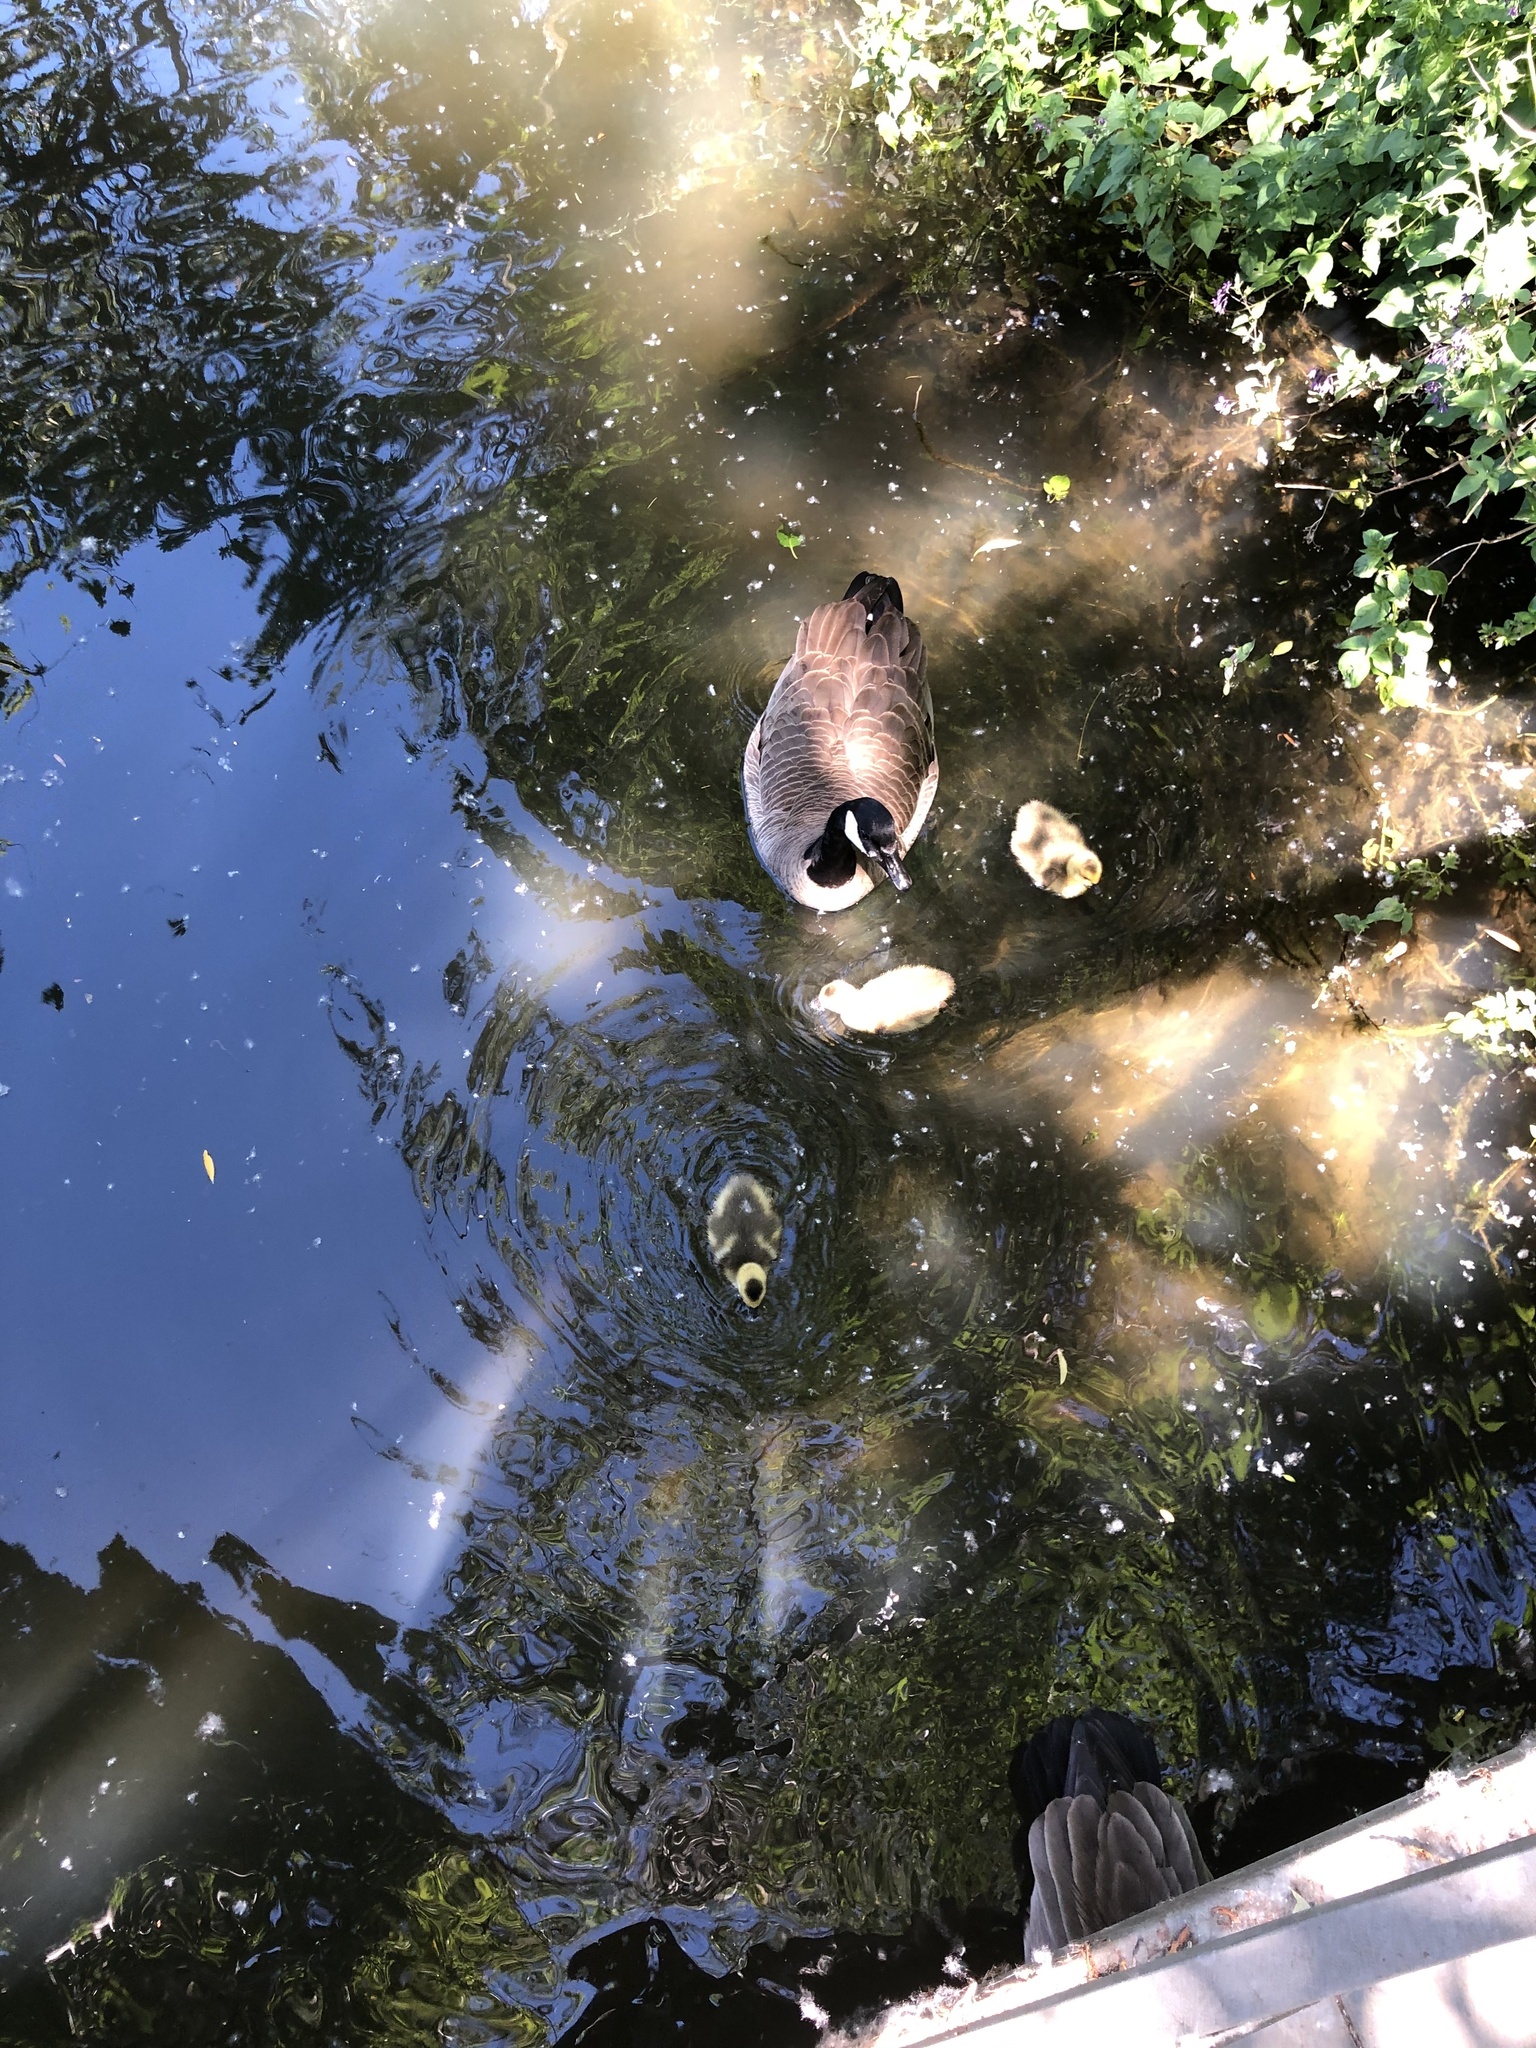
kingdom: Animalia
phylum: Chordata
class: Aves
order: Anseriformes
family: Anatidae
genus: Branta
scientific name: Branta canadensis
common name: Canada goose
